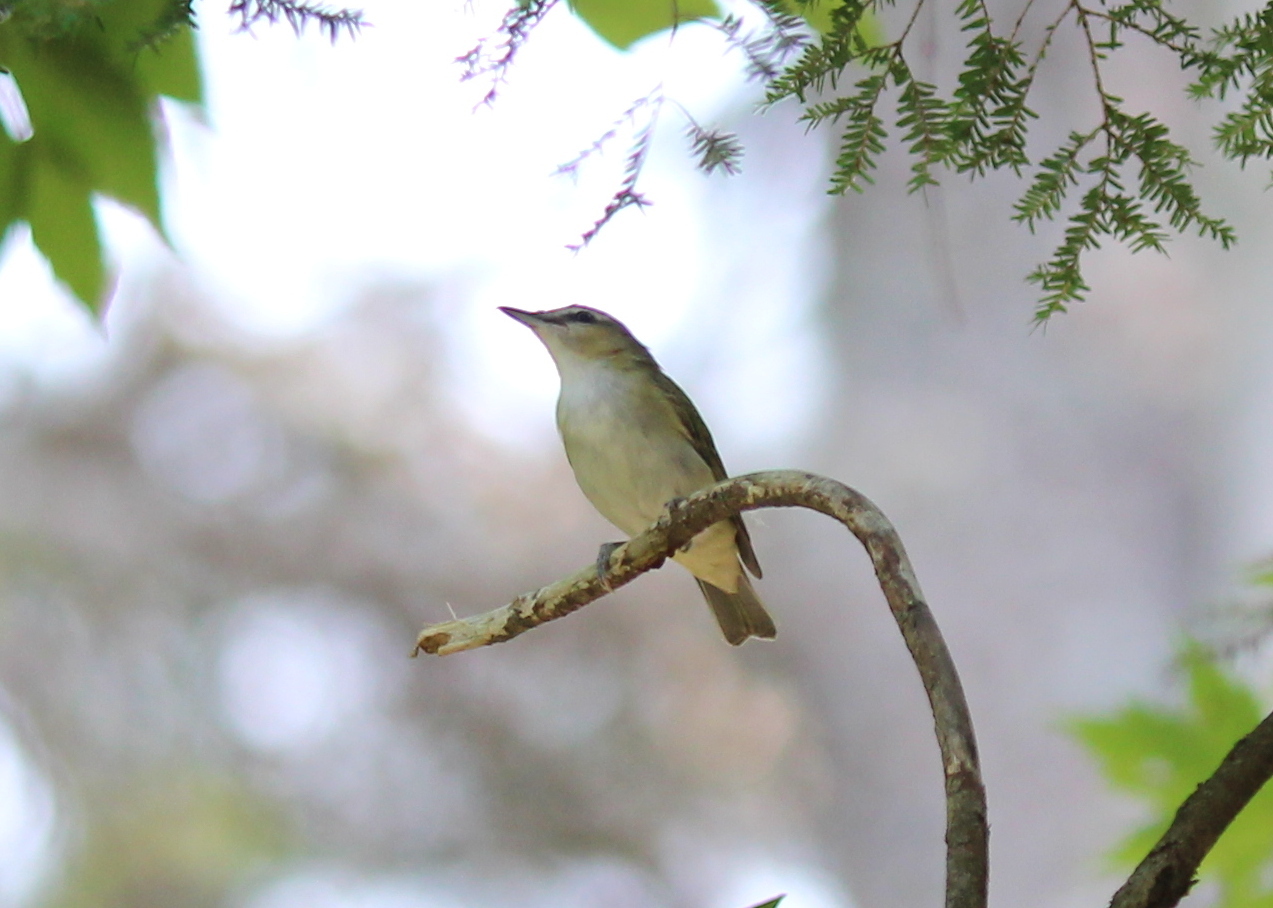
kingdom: Animalia
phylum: Chordata
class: Aves
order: Passeriformes
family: Vireonidae
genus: Vireo
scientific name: Vireo olivaceus
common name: Red-eyed vireo
